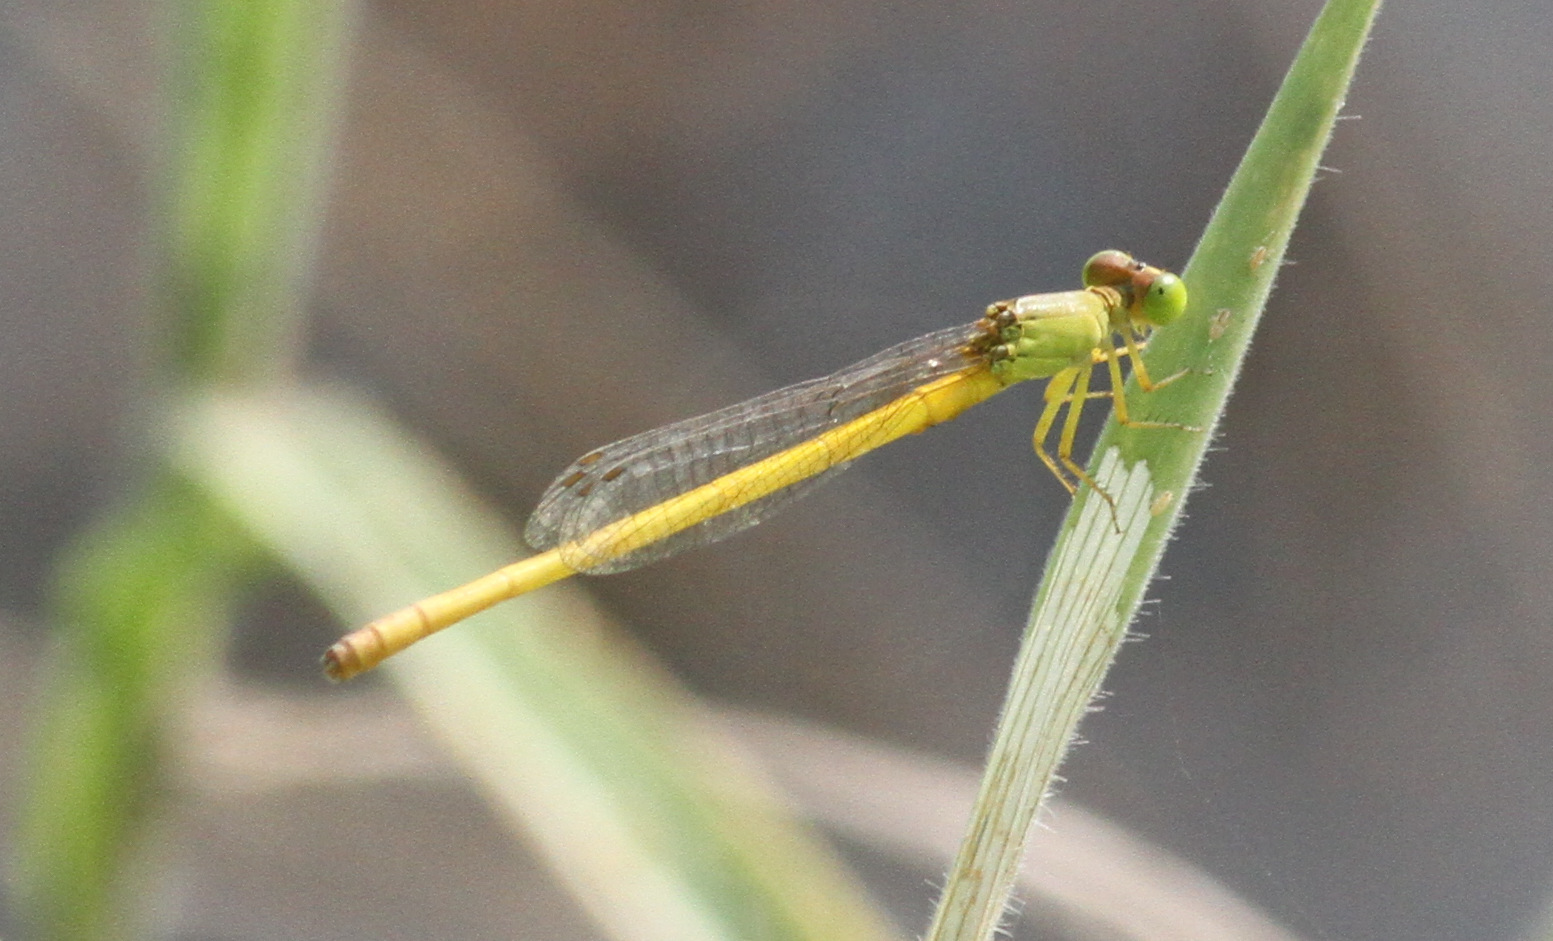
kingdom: Animalia
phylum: Arthropoda
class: Insecta
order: Odonata
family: Coenagrionidae
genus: Ceriagrion
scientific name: Ceriagrion coromandelianum
